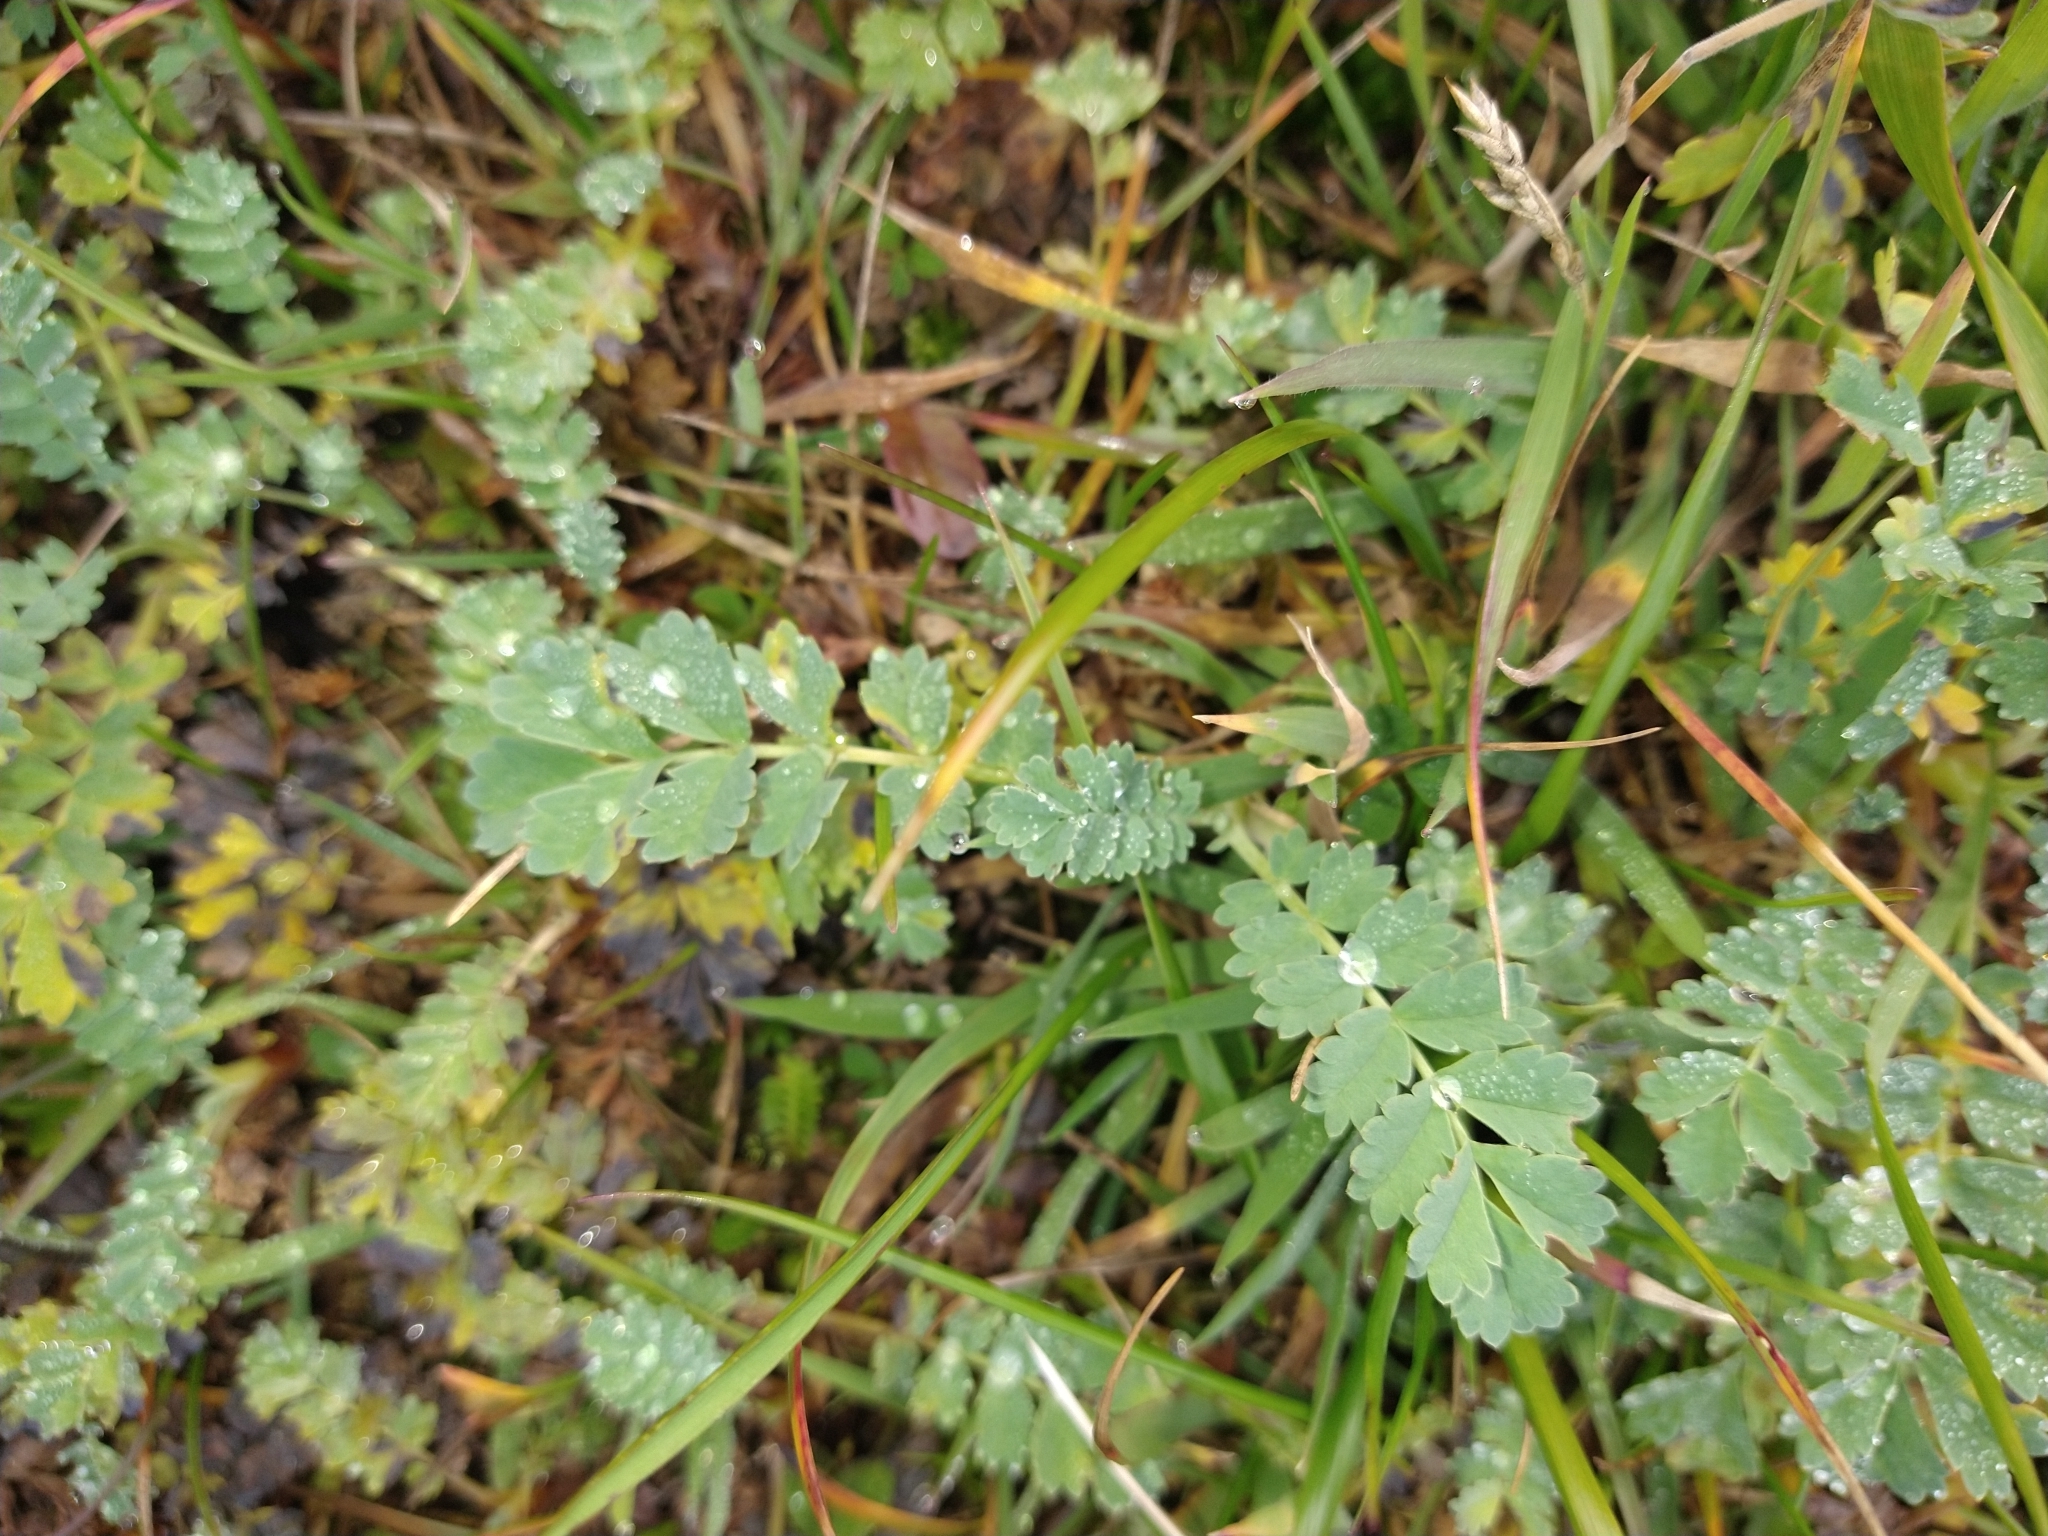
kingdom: Plantae
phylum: Tracheophyta
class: Magnoliopsida
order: Rosales
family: Rosaceae
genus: Acaena
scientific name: Acaena magellanica
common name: New zealand burr
